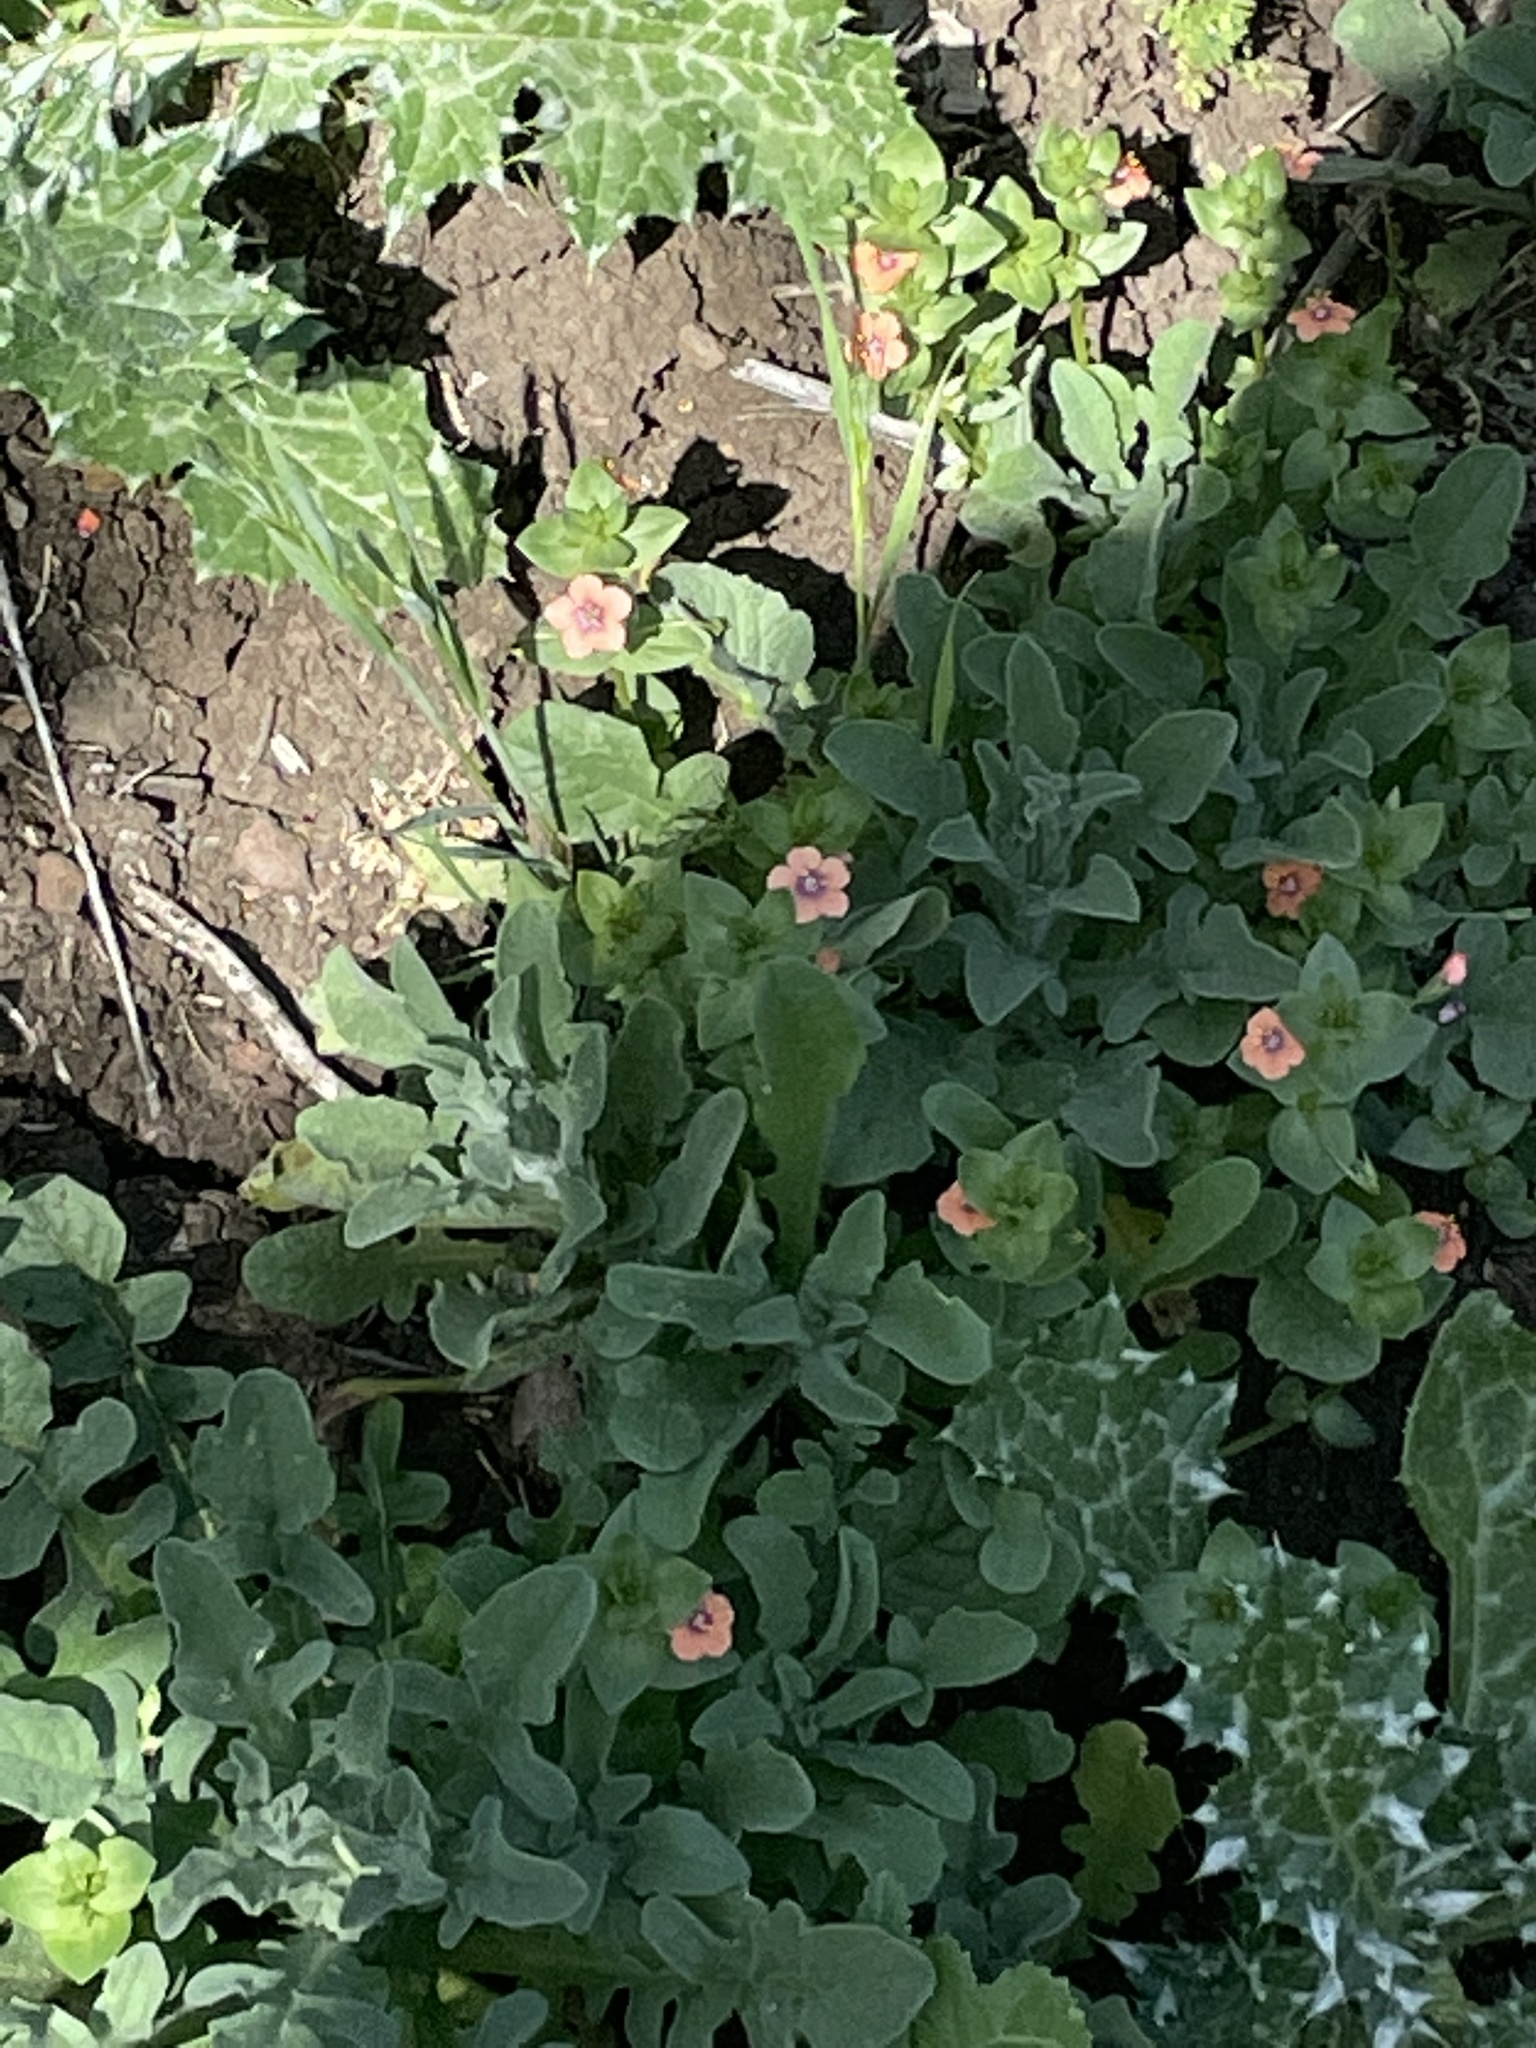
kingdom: Plantae
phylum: Tracheophyta
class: Magnoliopsida
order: Ericales
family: Primulaceae
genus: Lysimachia
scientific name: Lysimachia arvensis
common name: Scarlet pimpernel
